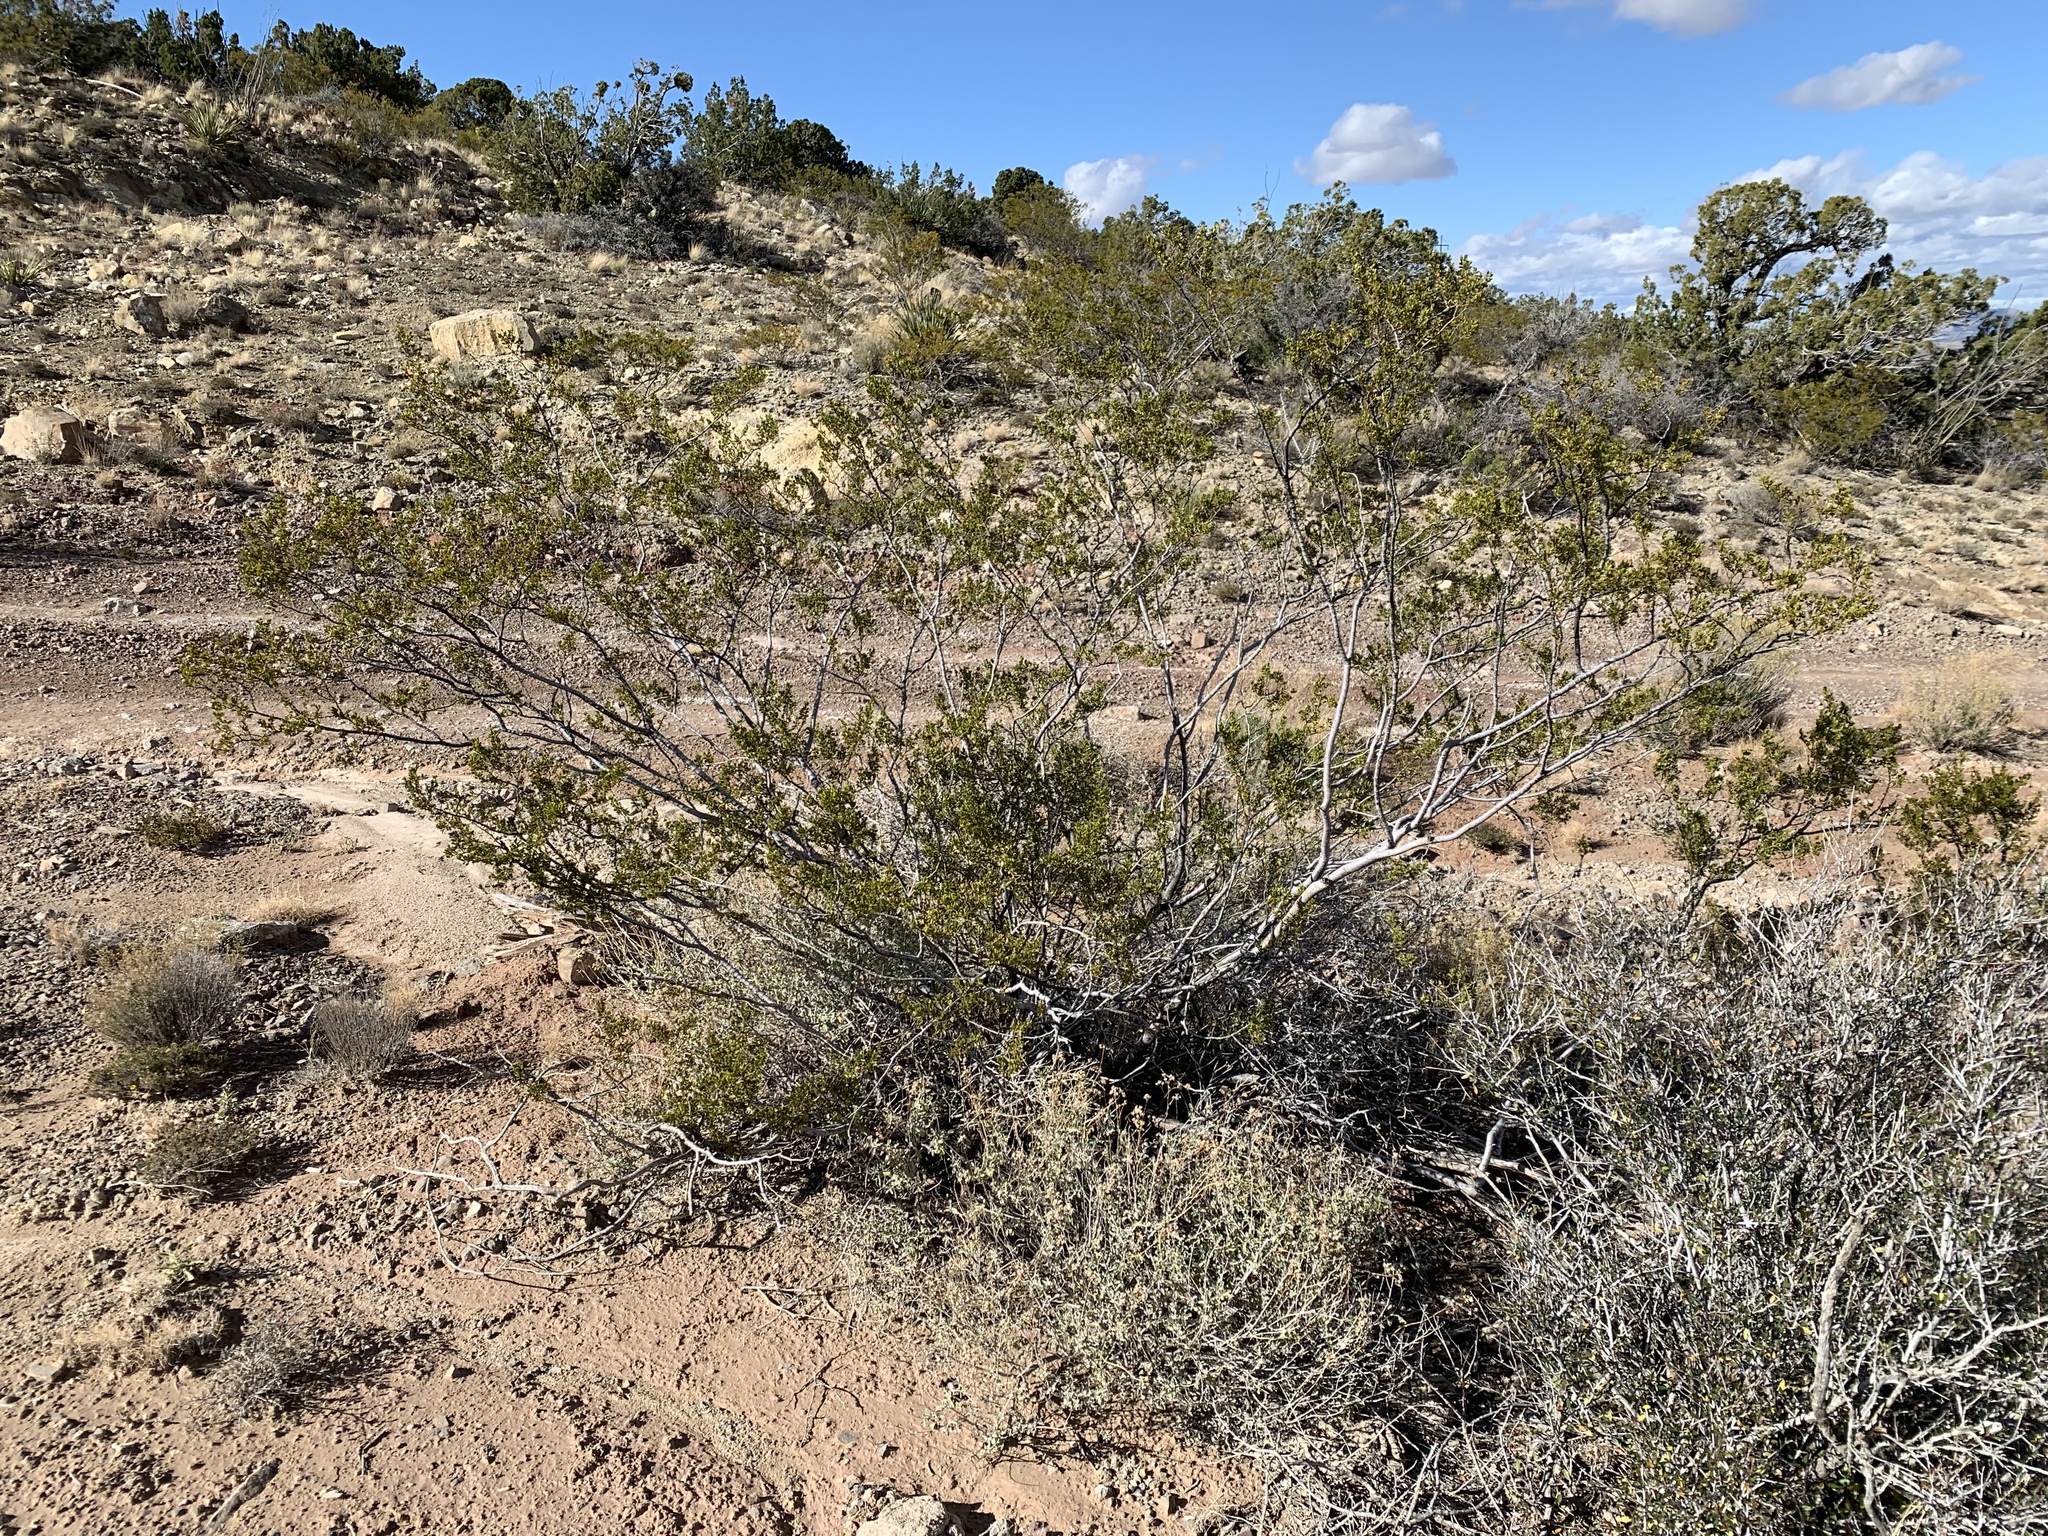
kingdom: Plantae
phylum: Tracheophyta
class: Magnoliopsida
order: Zygophyllales
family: Zygophyllaceae
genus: Larrea
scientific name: Larrea tridentata
